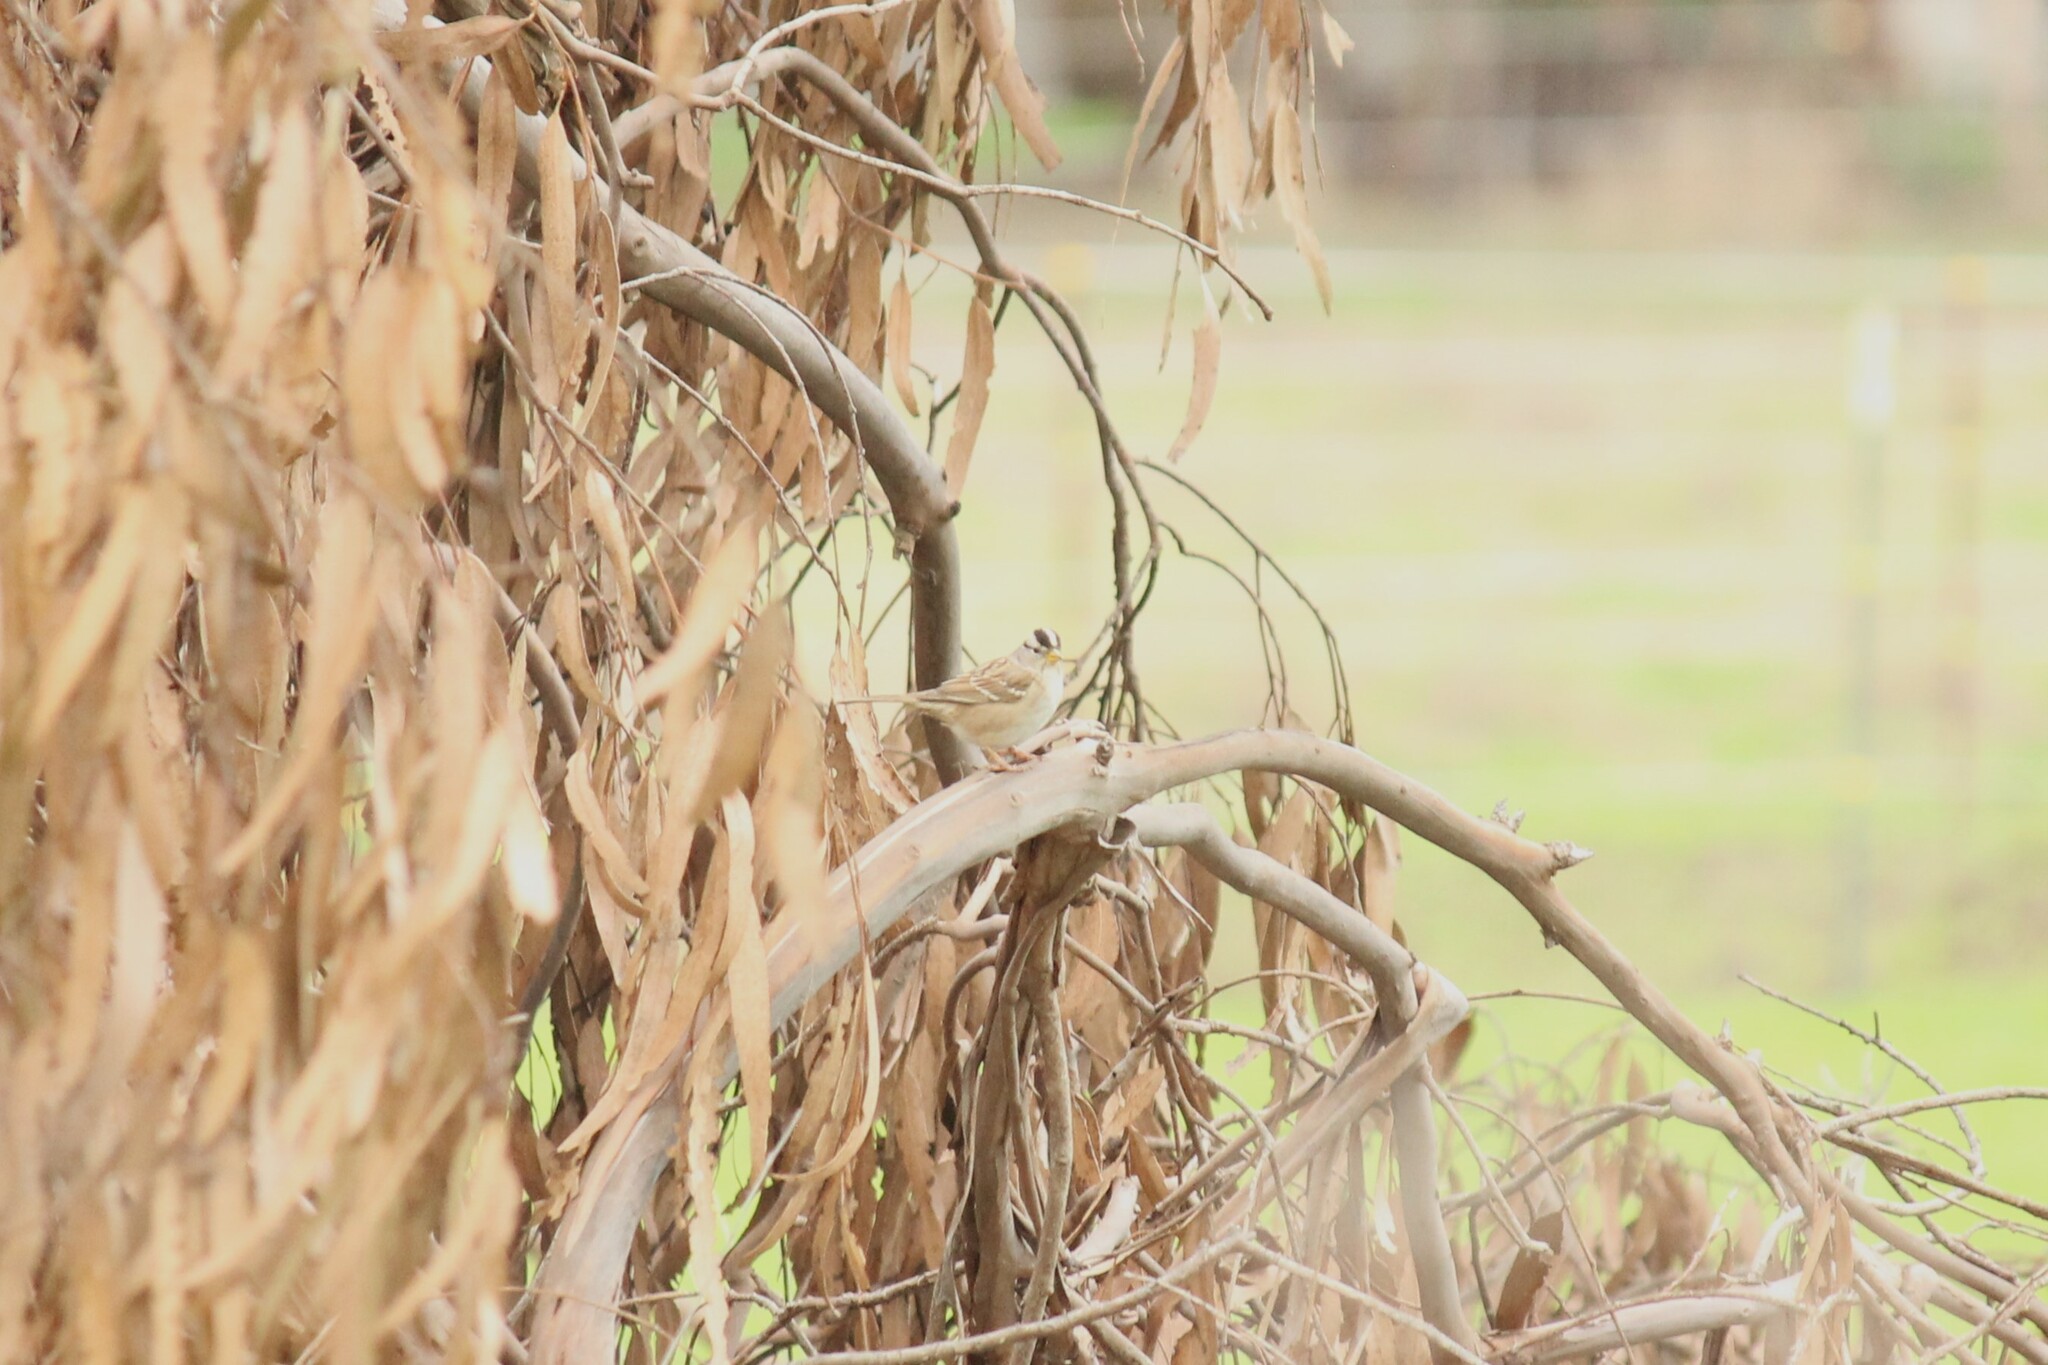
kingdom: Animalia
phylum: Chordata
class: Aves
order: Passeriformes
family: Passerellidae
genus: Zonotrichia
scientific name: Zonotrichia leucophrys
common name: White-crowned sparrow
